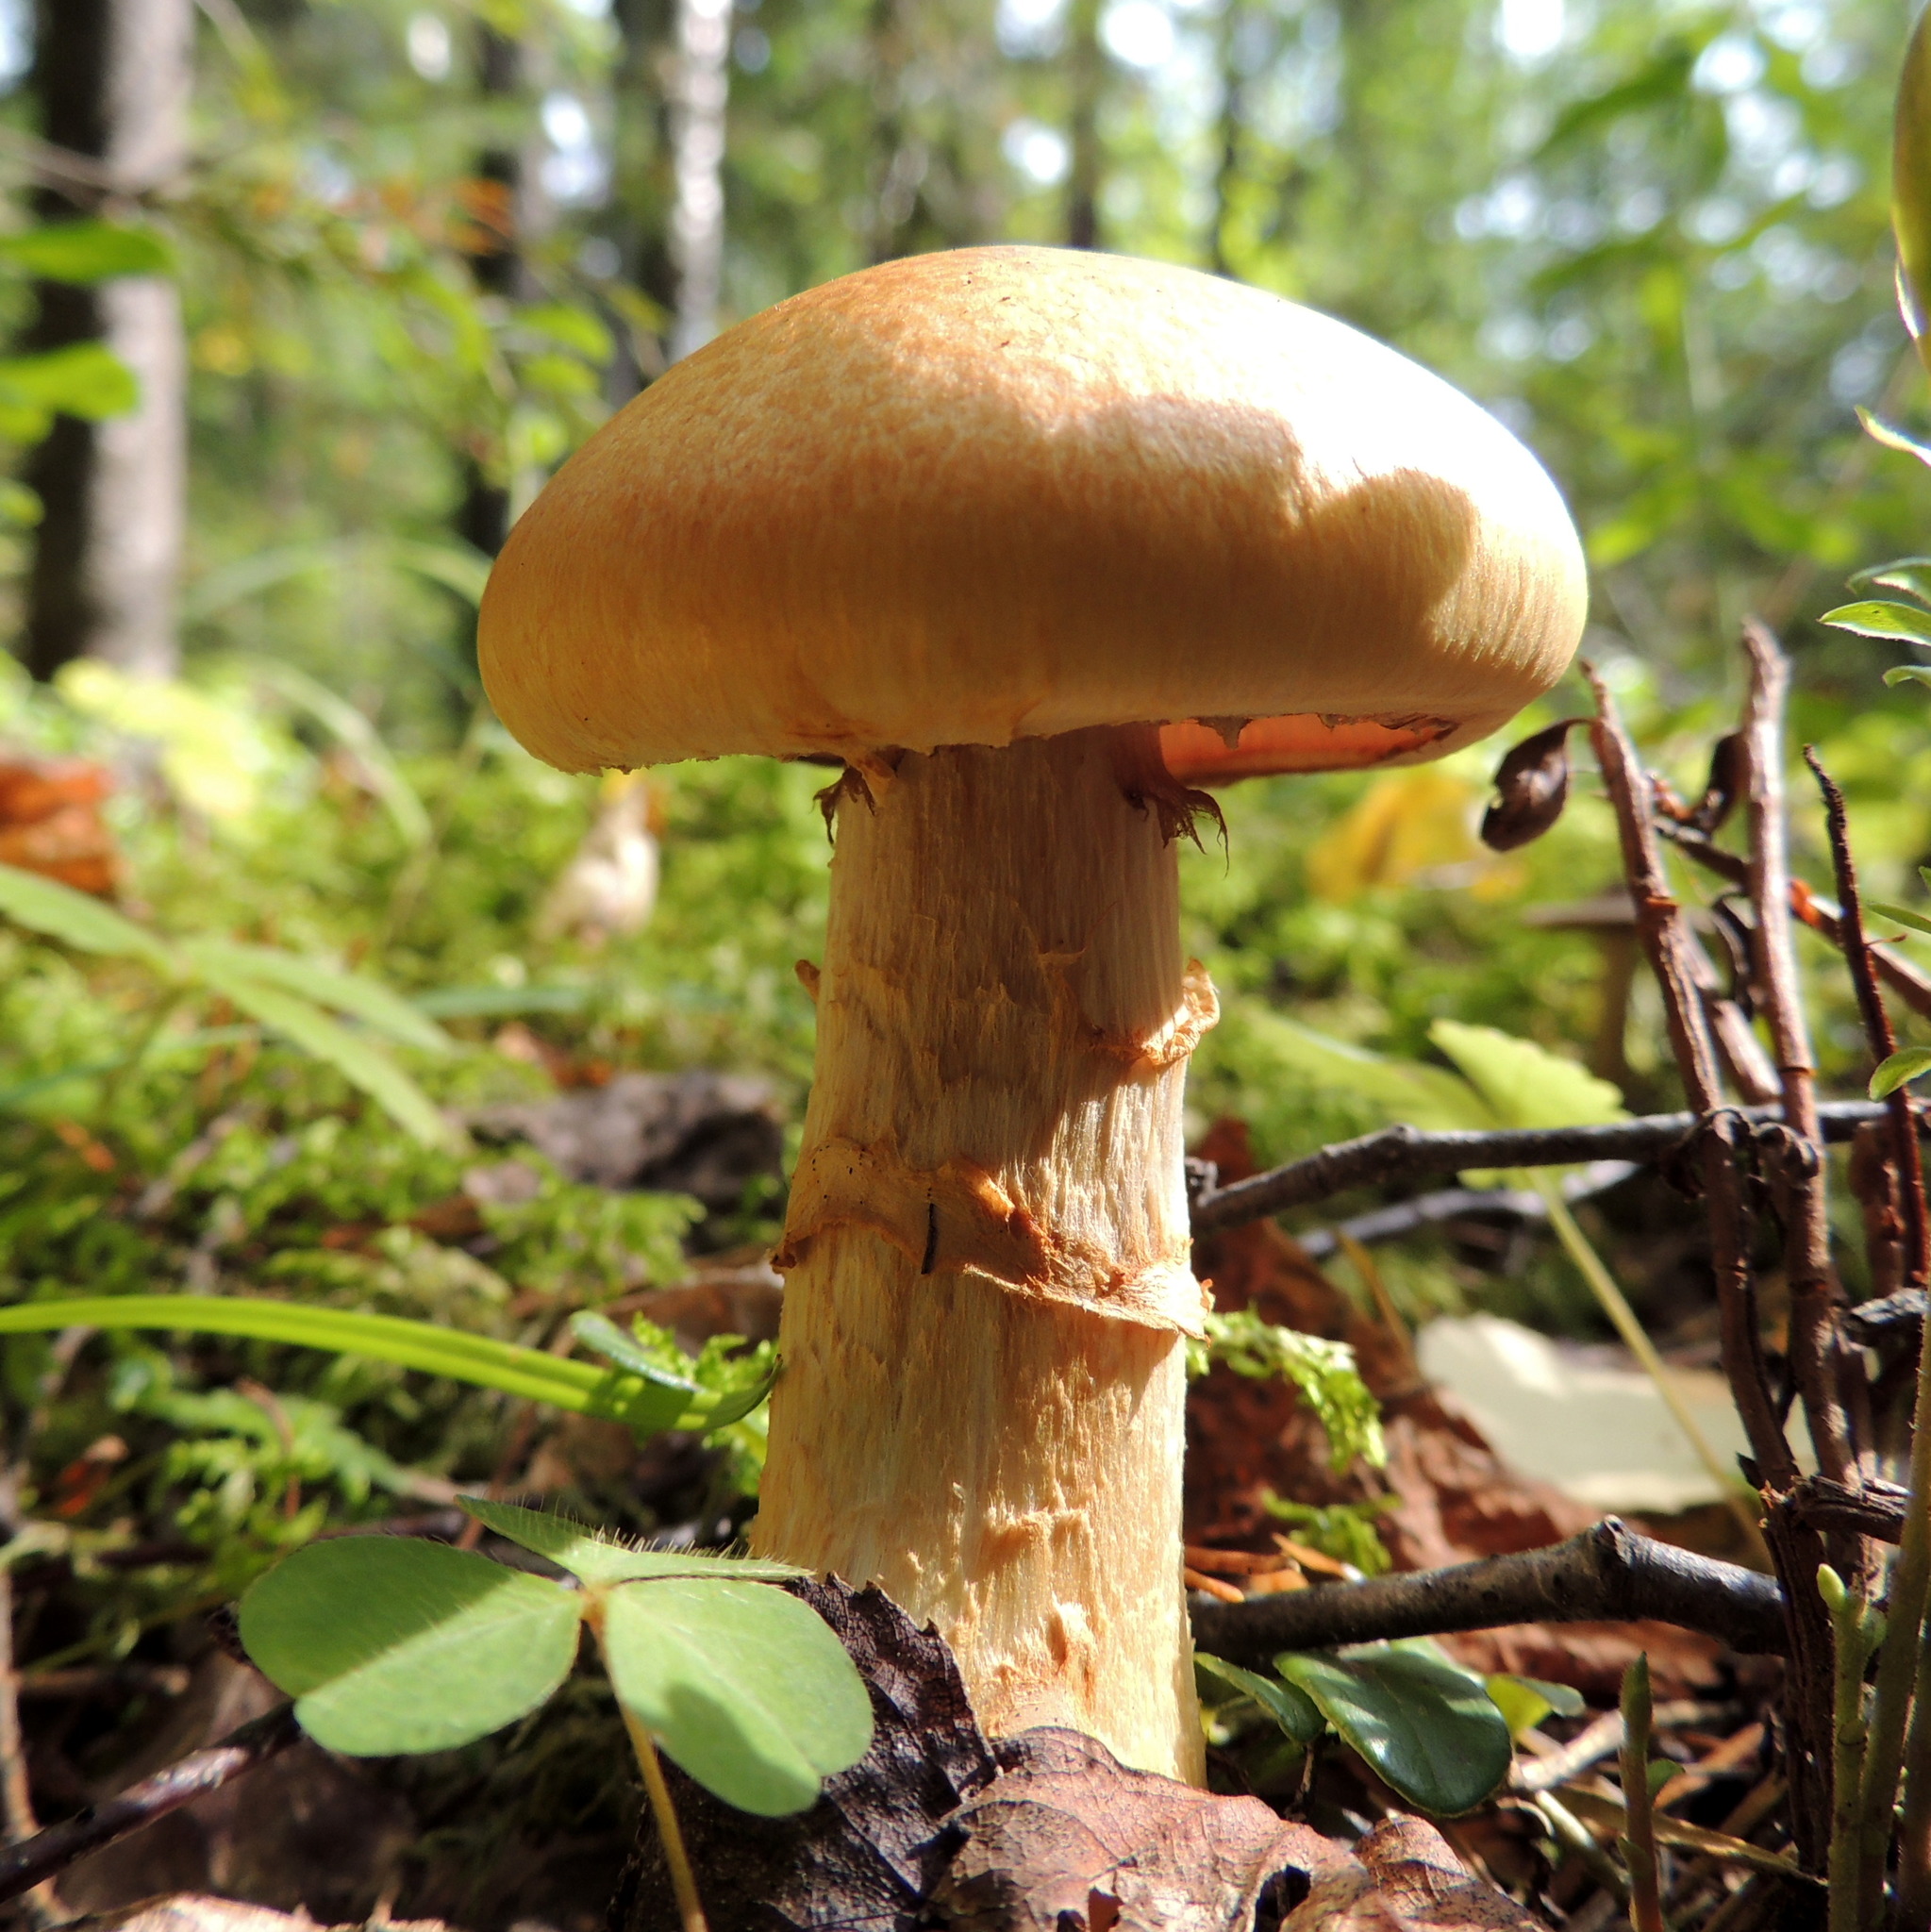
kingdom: Fungi
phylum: Basidiomycota
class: Agaricomycetes
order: Agaricales
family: Cortinariaceae
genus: Phlegmacium
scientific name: Phlegmacium triumphans
